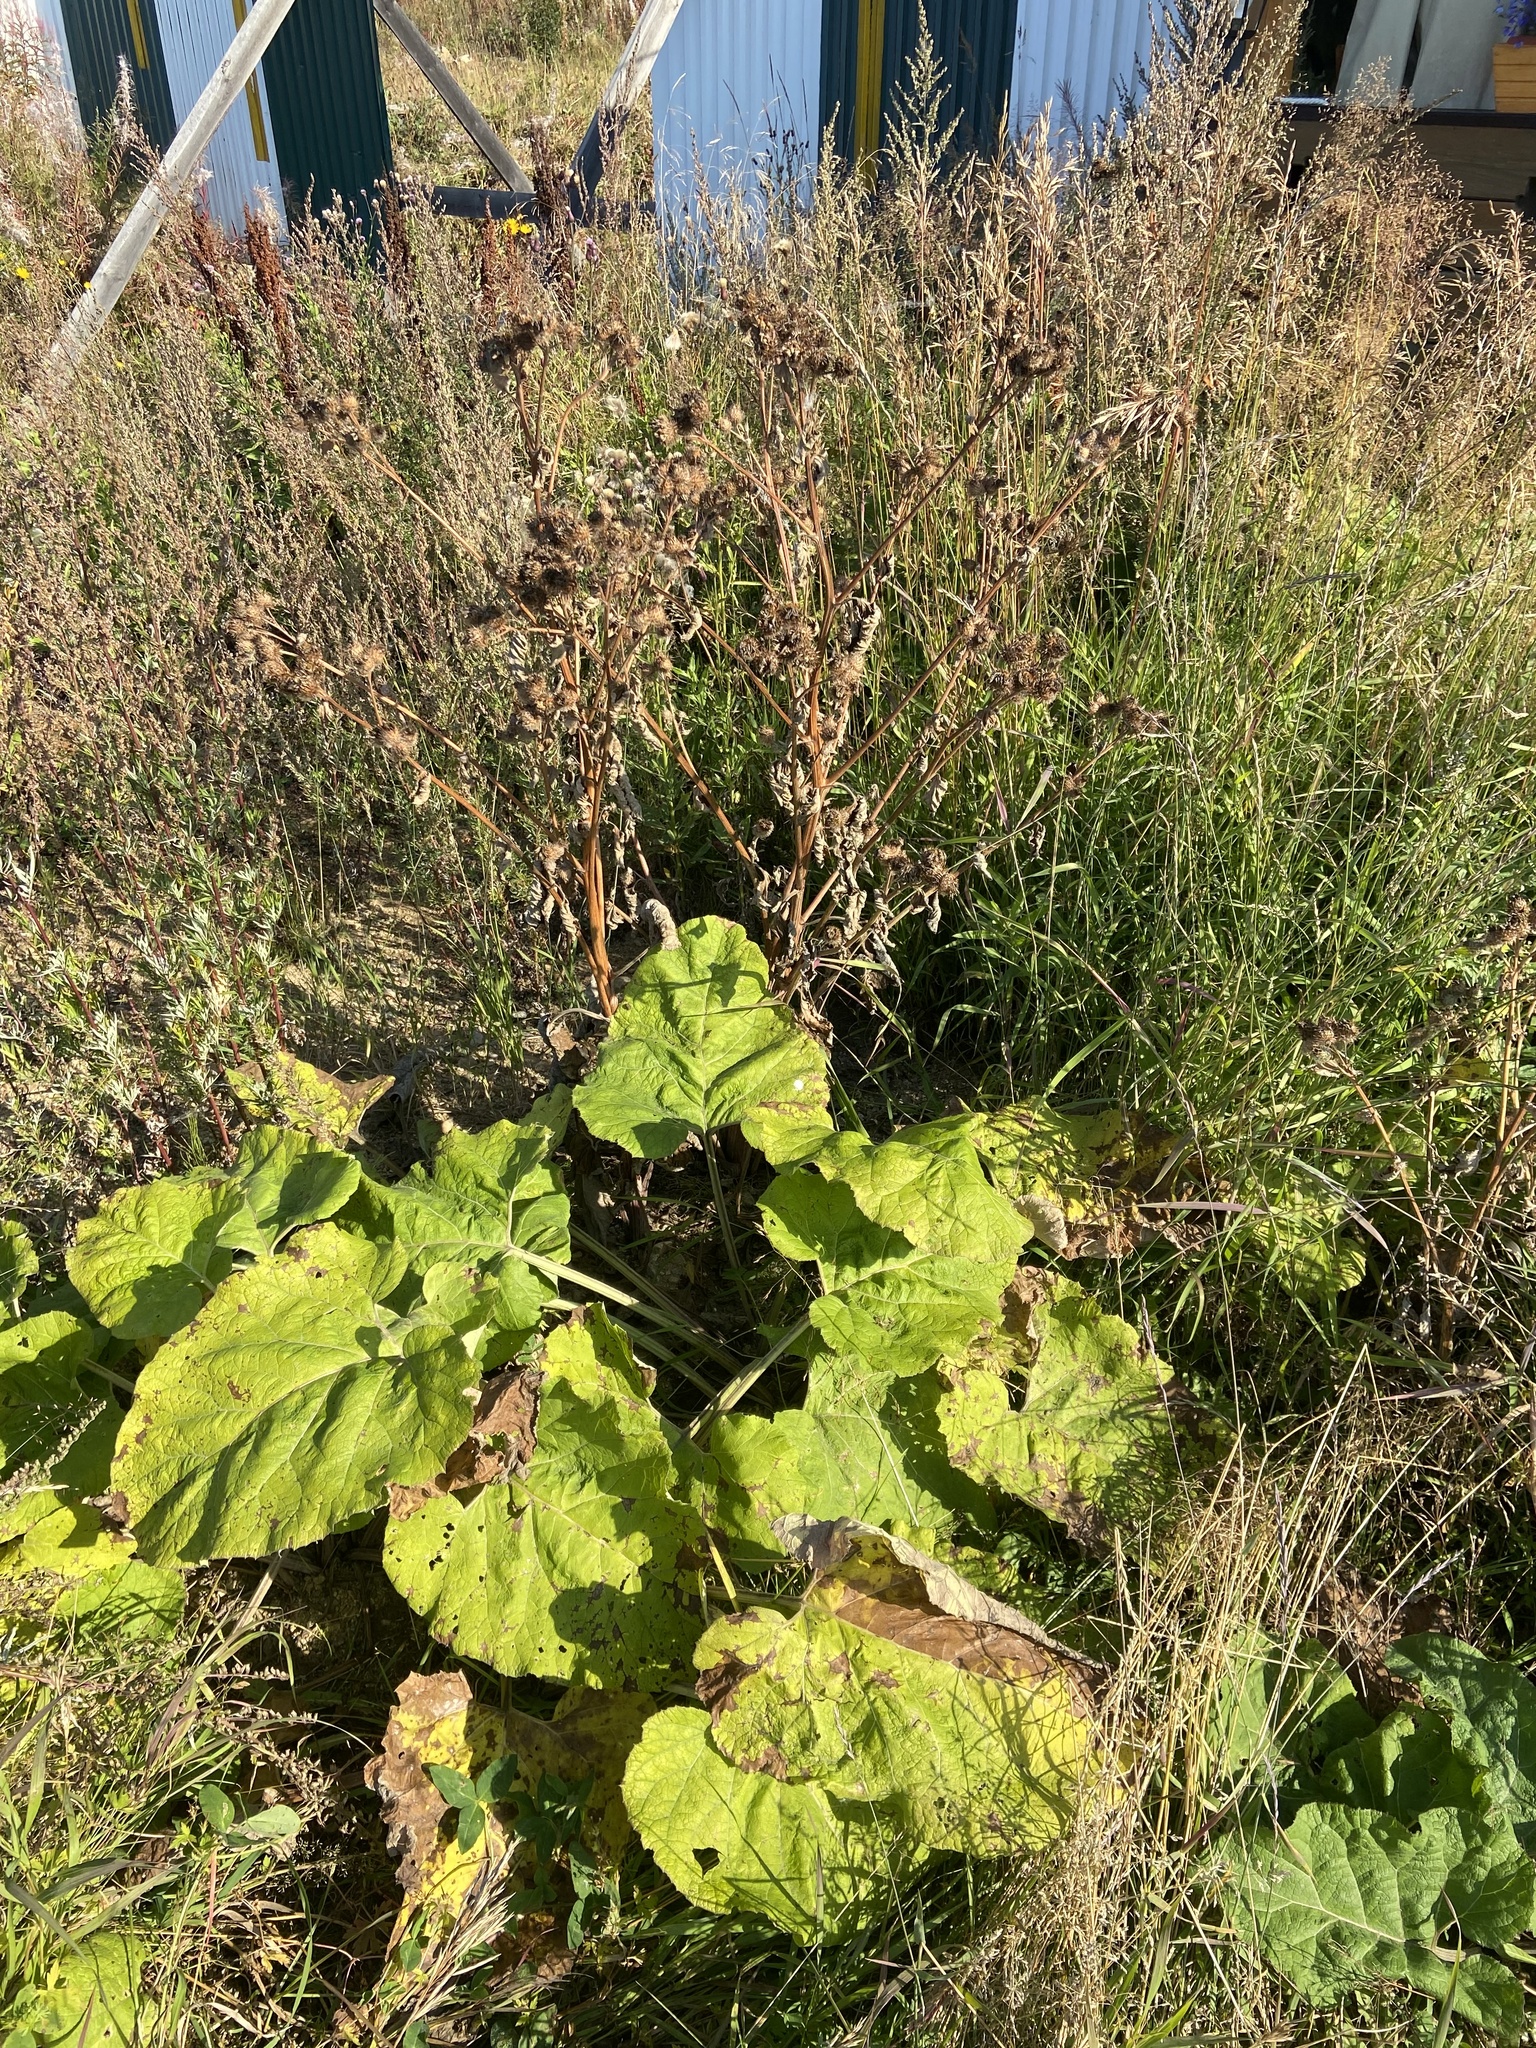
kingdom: Plantae
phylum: Tracheophyta
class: Magnoliopsida
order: Asterales
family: Asteraceae
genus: Arctium
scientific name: Arctium tomentosum
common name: Woolly burdock
